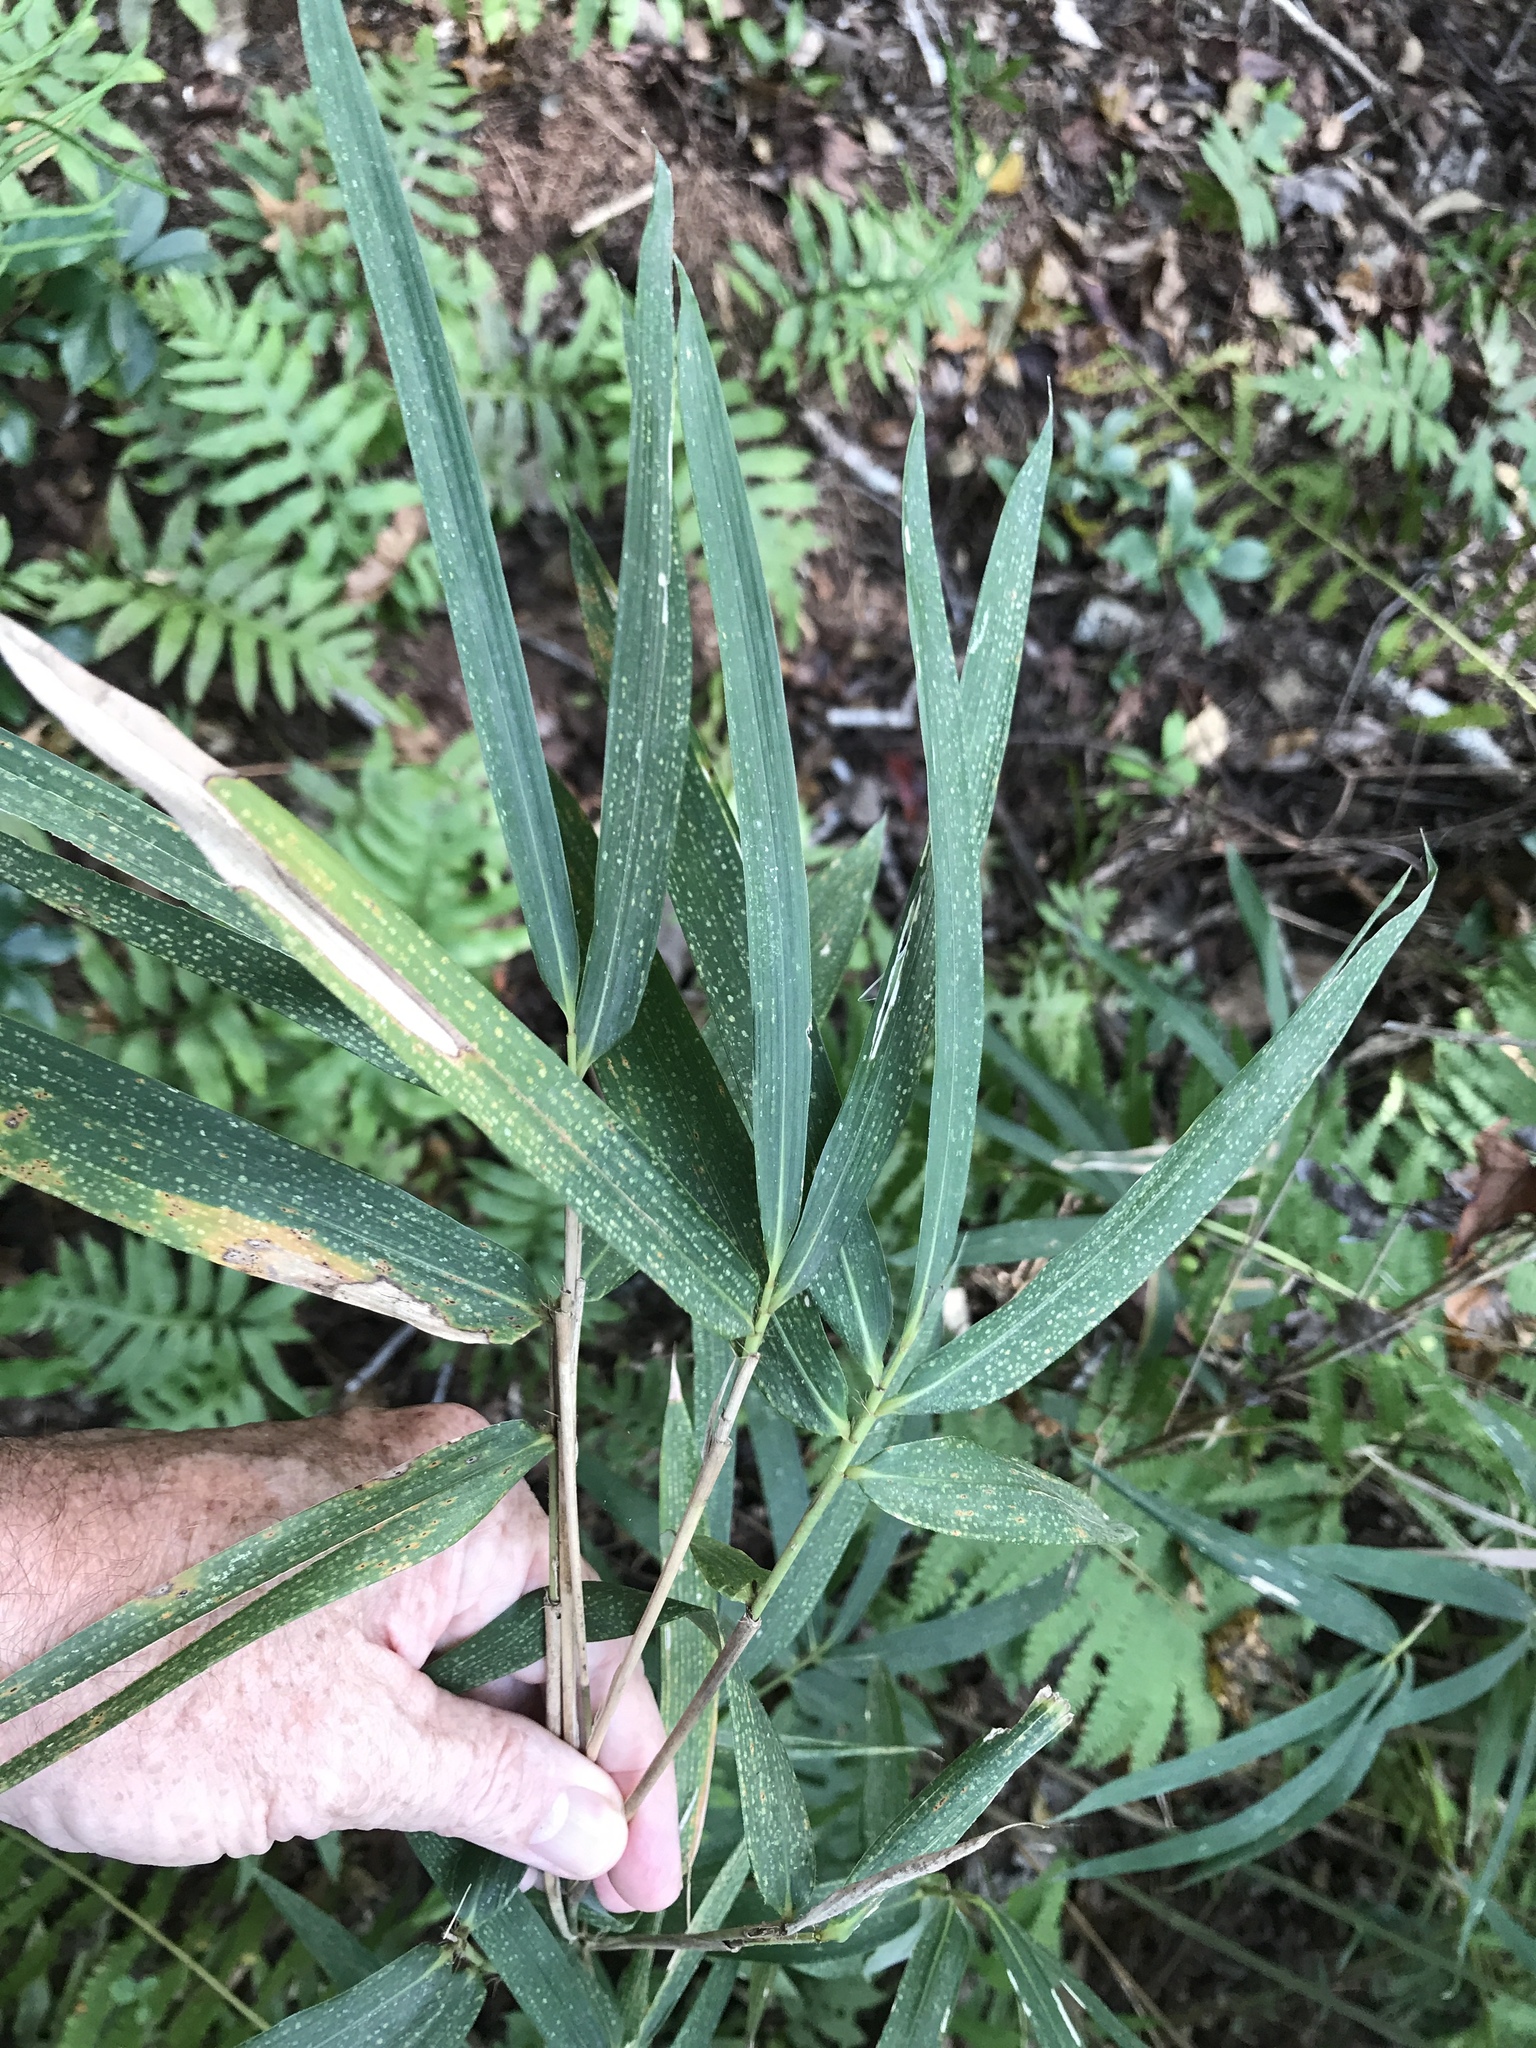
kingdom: Plantae
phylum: Tracheophyta
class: Liliopsida
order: Poales
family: Poaceae
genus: Arundinaria
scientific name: Arundinaria tecta
